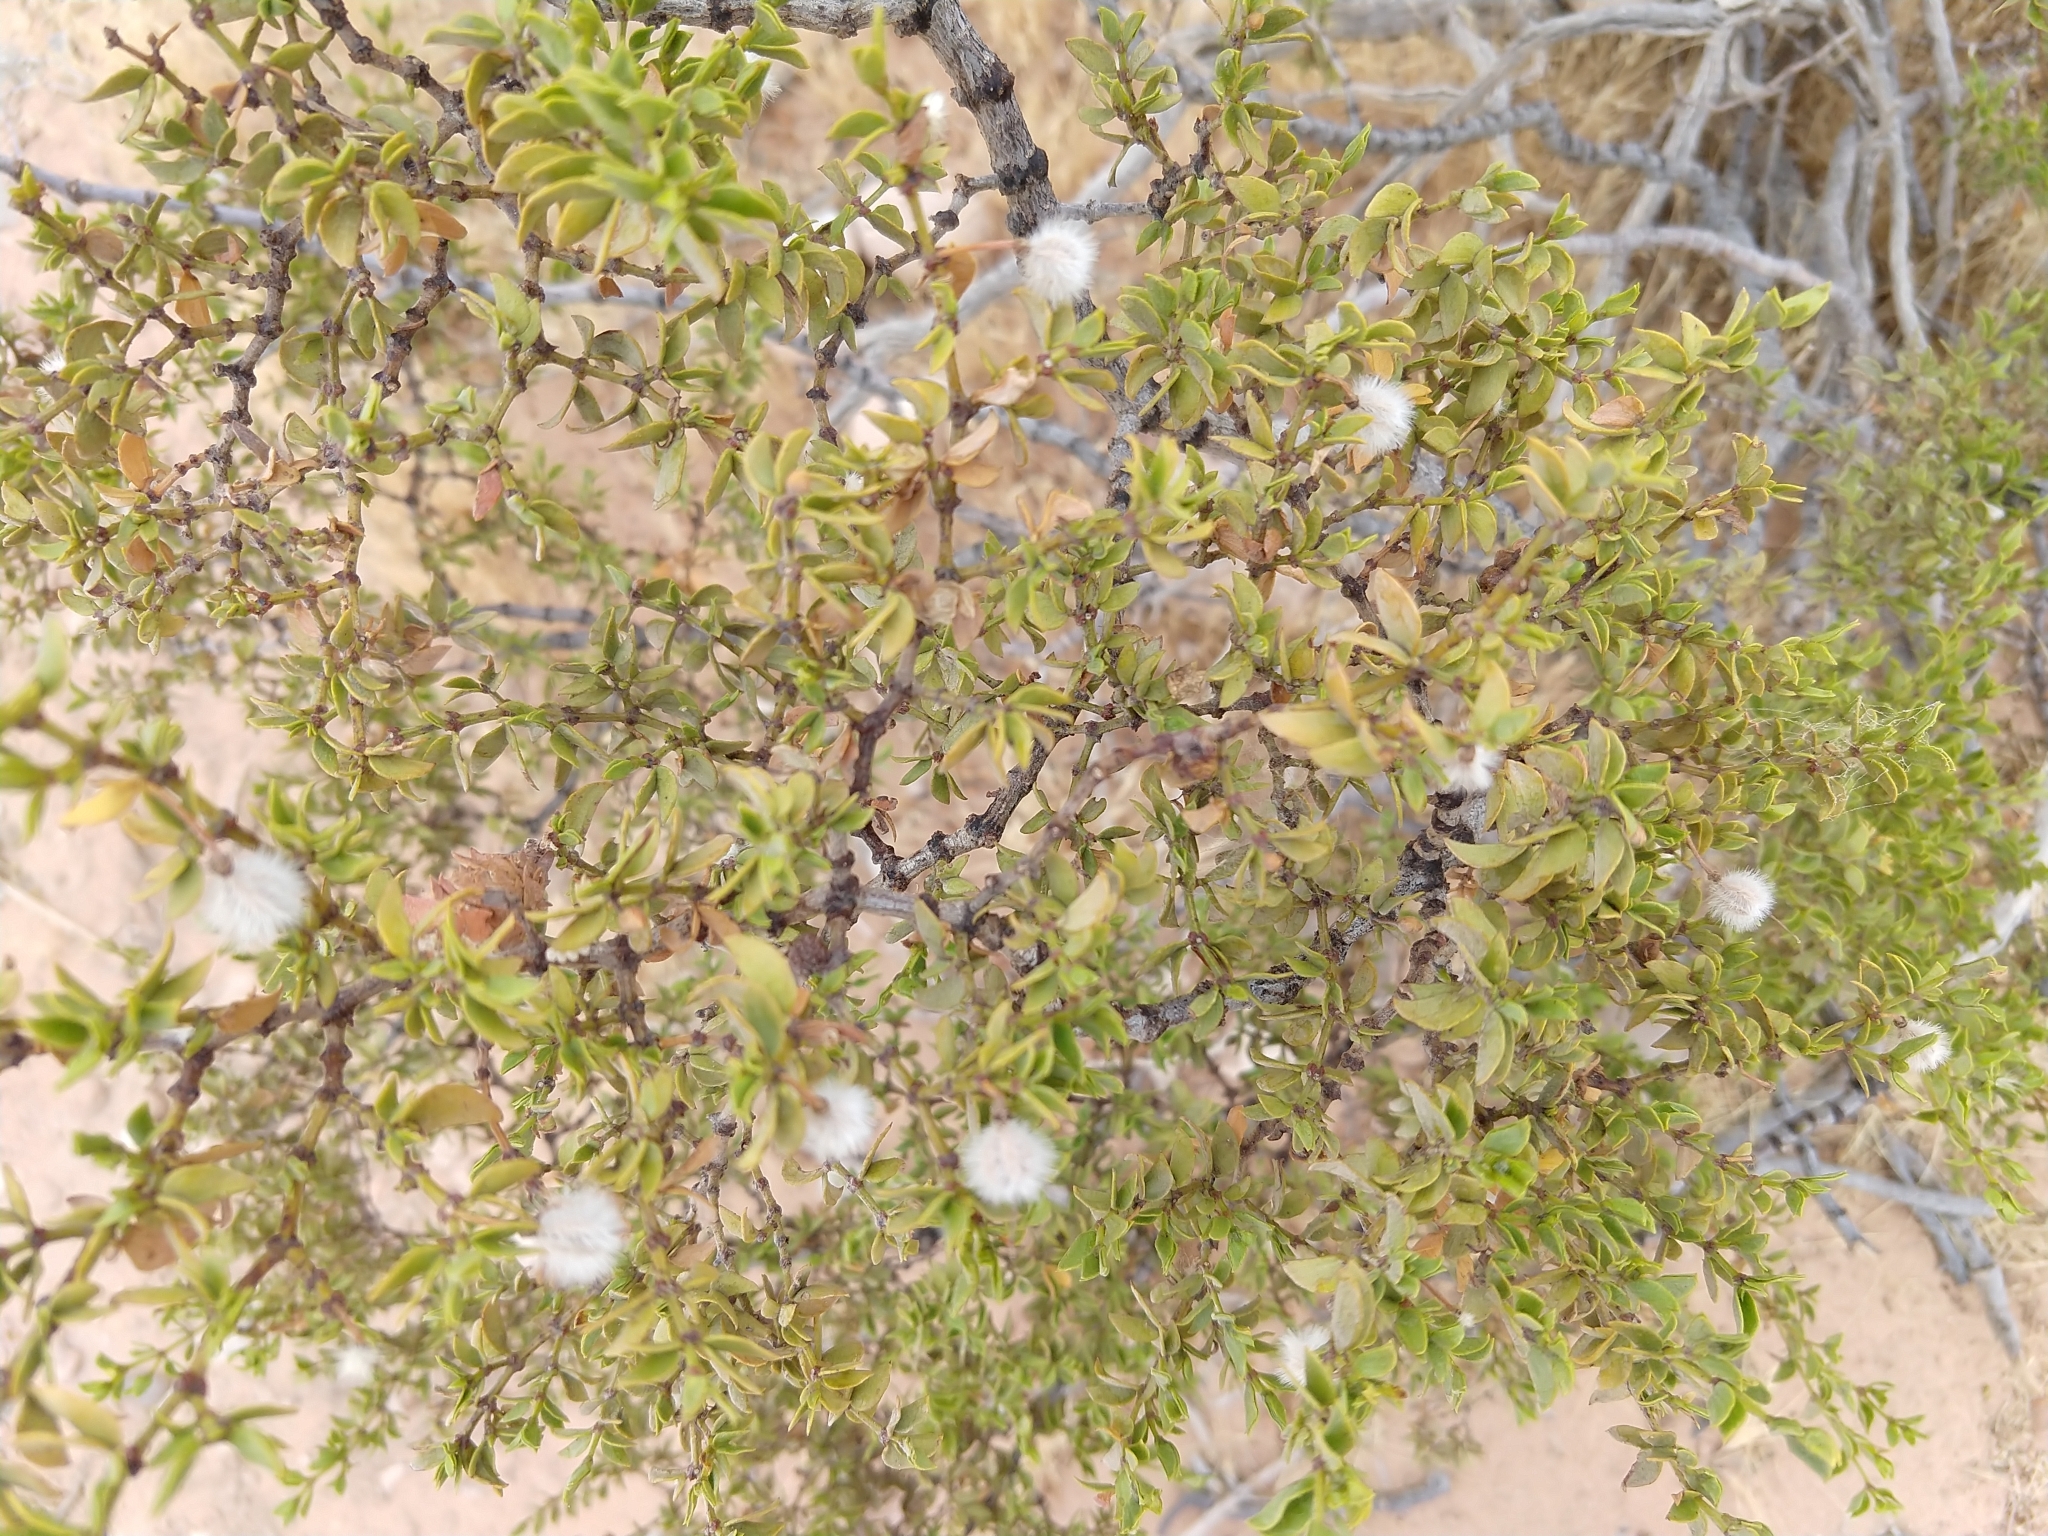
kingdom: Plantae
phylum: Tracheophyta
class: Magnoliopsida
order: Zygophyllales
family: Zygophyllaceae
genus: Larrea
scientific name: Larrea tridentata
